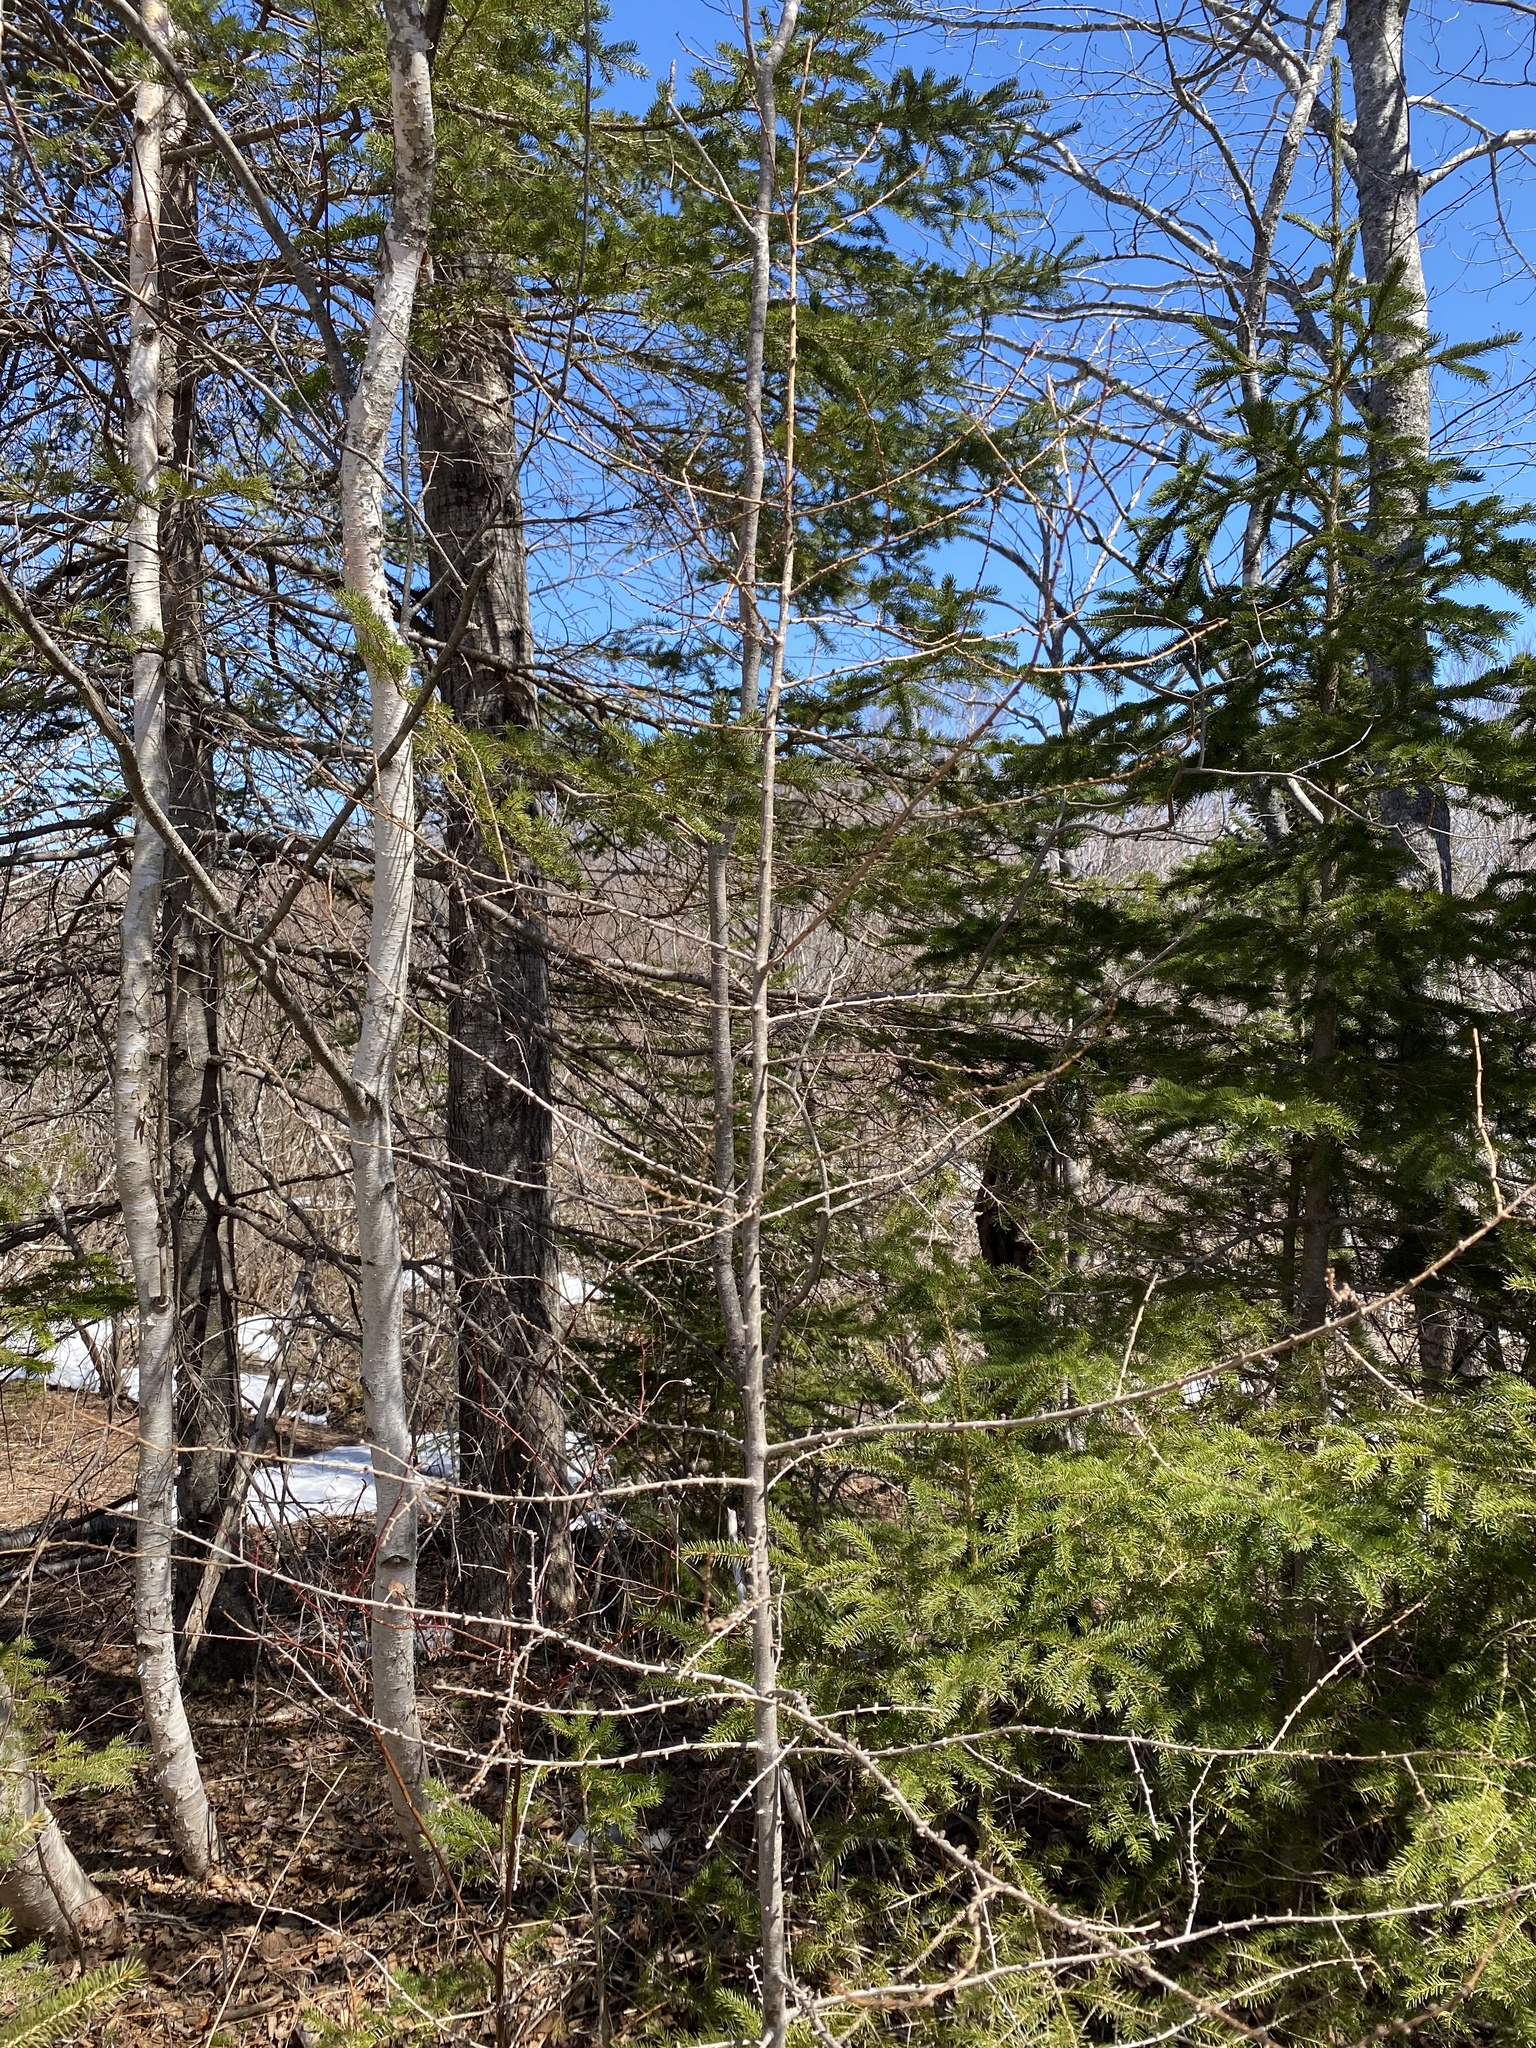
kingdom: Plantae
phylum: Tracheophyta
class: Pinopsida
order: Pinales
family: Pinaceae
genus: Larix
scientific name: Larix laricina
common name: American larch
